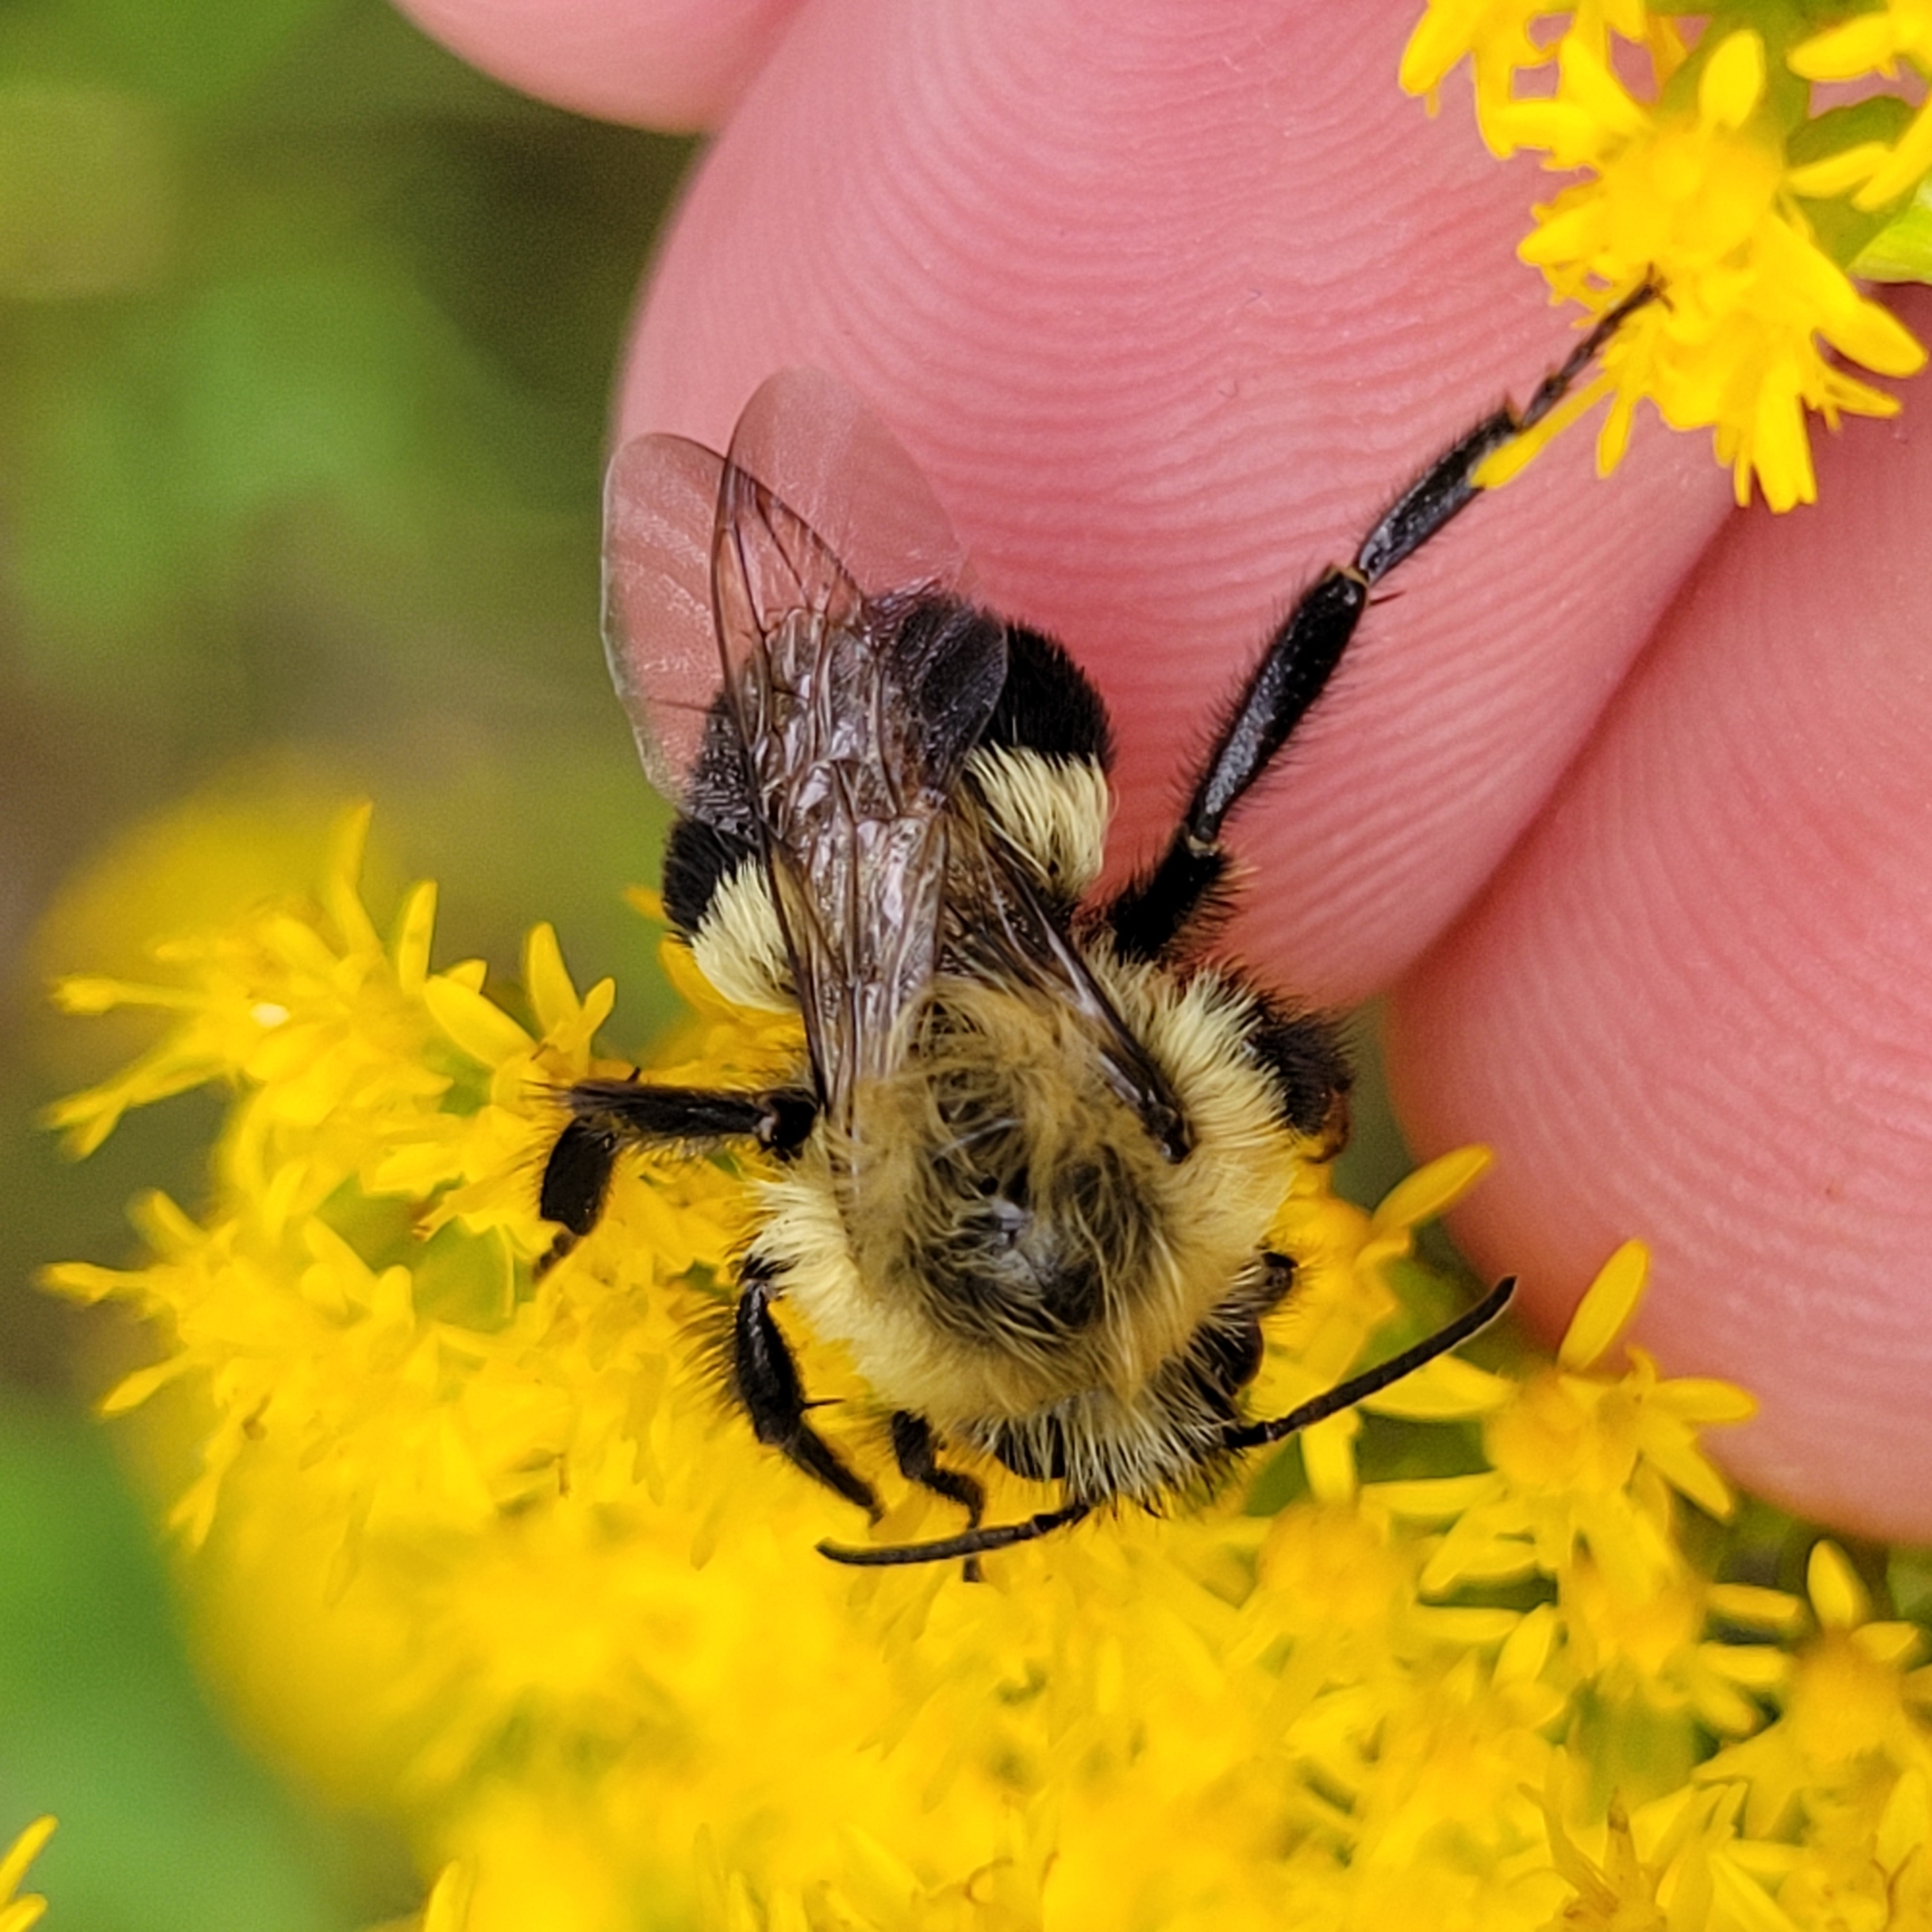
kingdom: Animalia
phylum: Arthropoda
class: Insecta
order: Hymenoptera
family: Apidae
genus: Bombus
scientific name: Bombus impatiens
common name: Common eastern bumble bee
